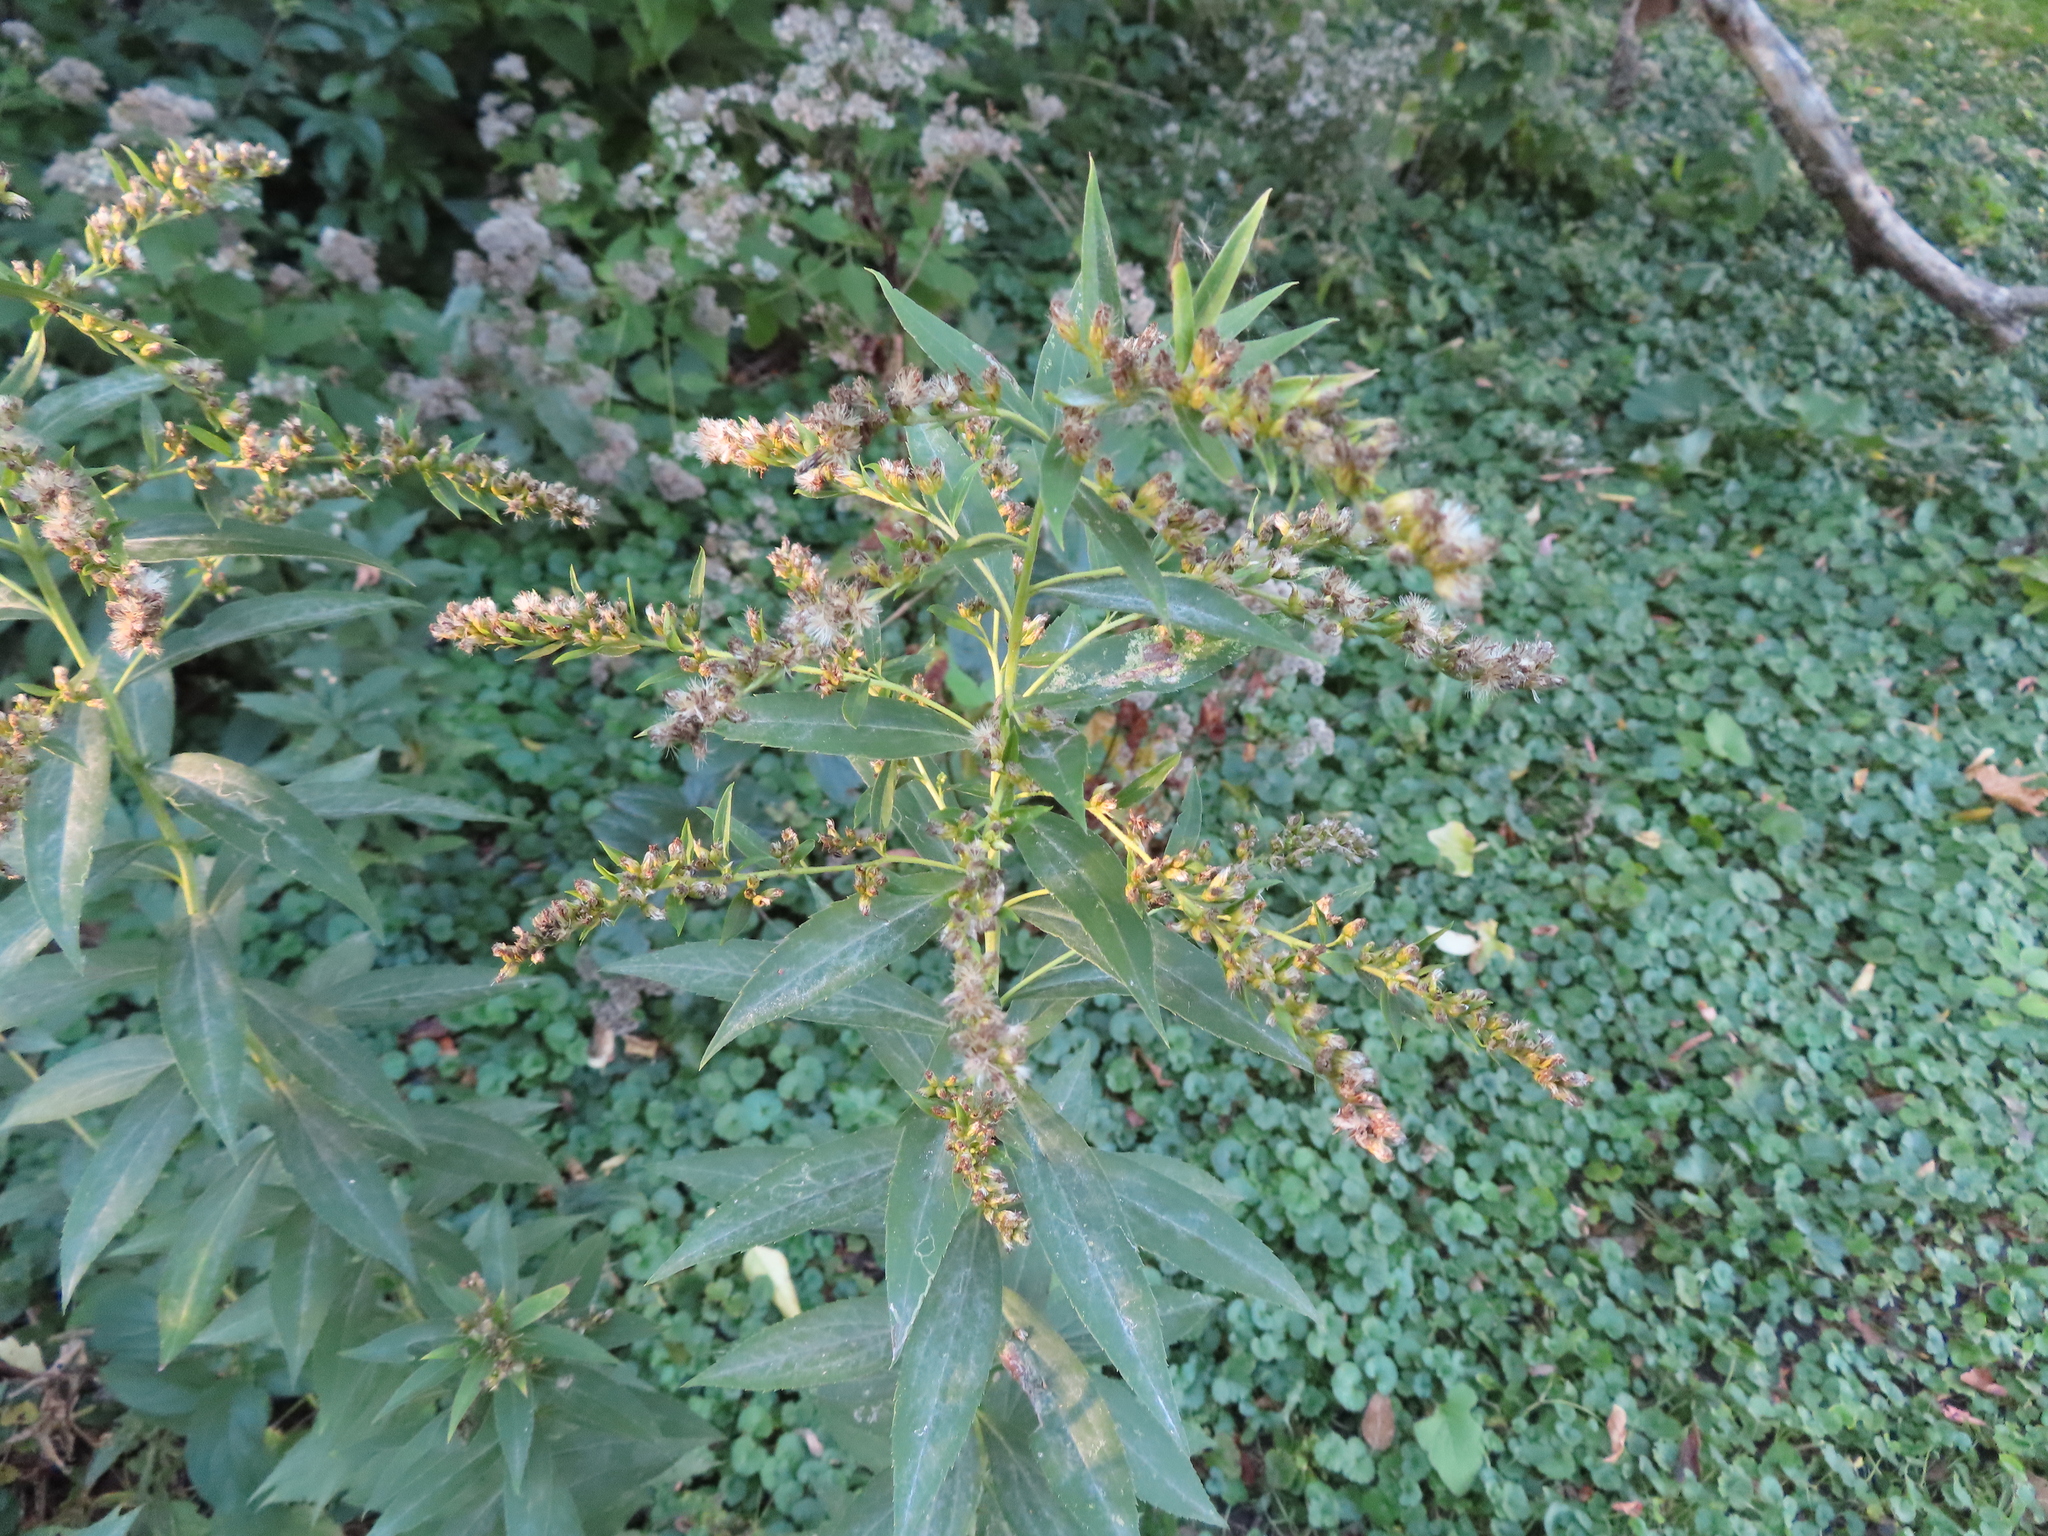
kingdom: Fungi
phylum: Ascomycota
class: Leotiomycetes
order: Helotiales
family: Erysiphaceae
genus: Golovinomyces
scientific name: Golovinomyces asterum
